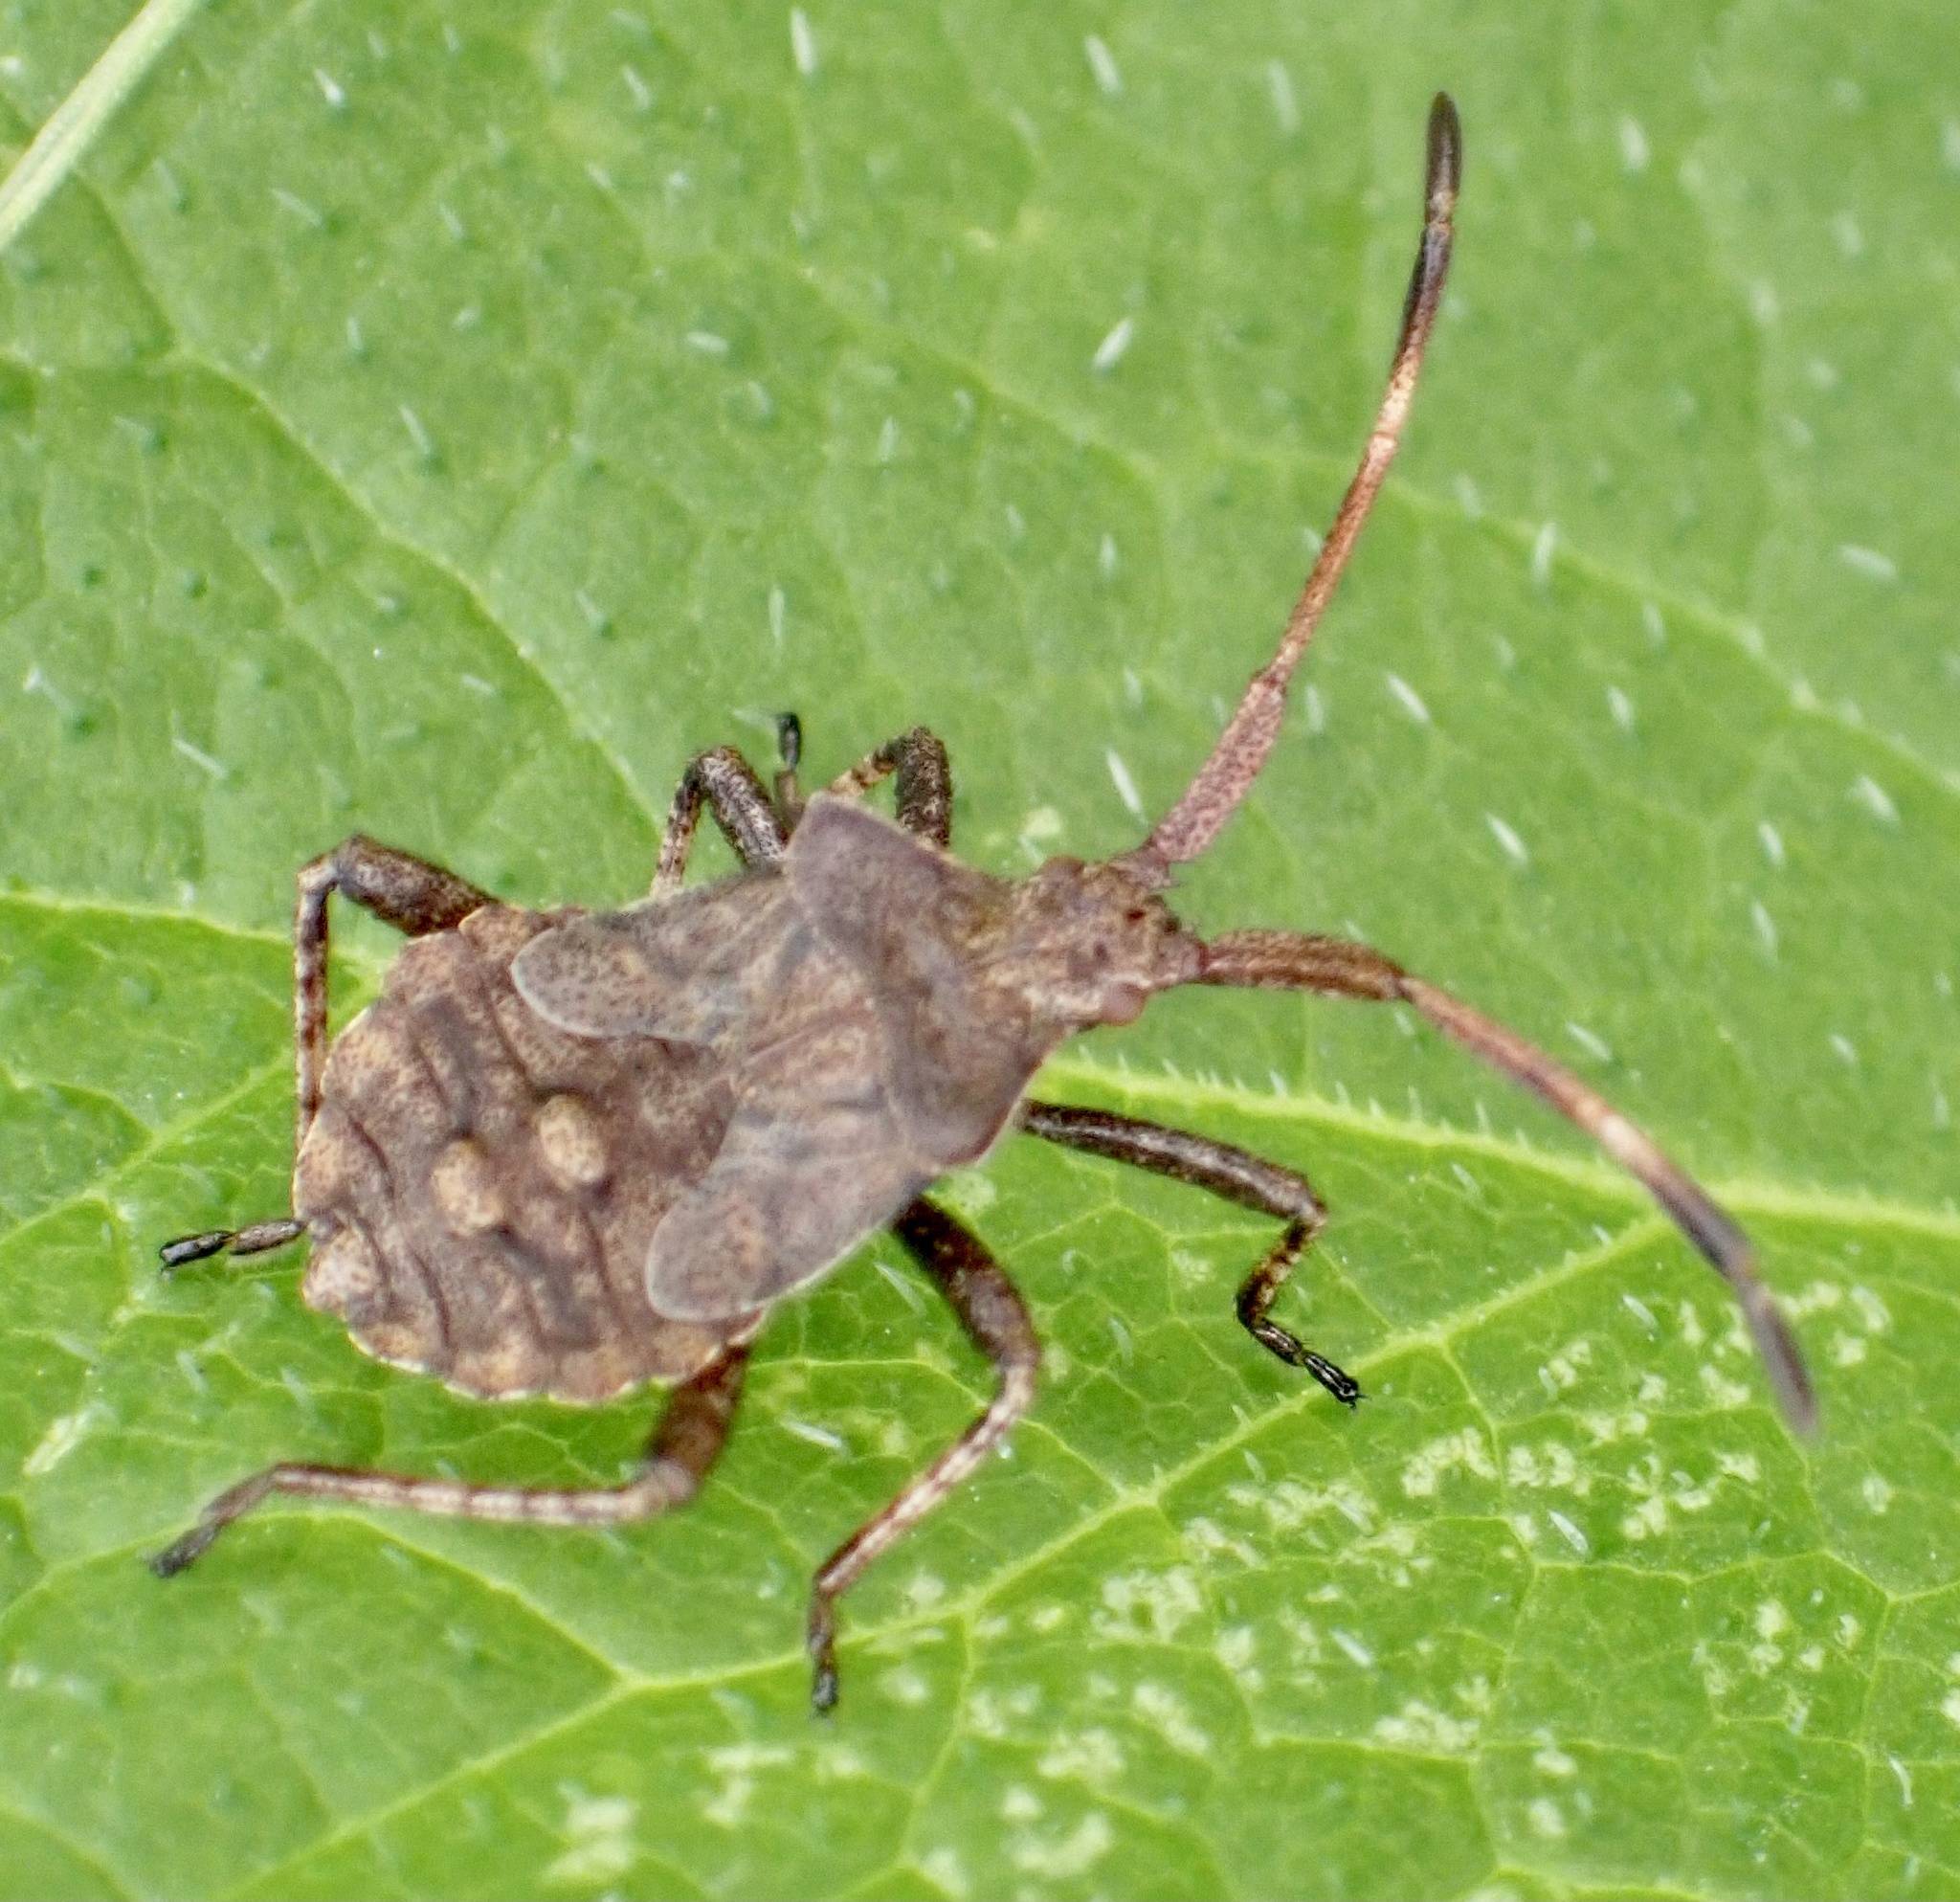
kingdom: Animalia
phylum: Arthropoda
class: Insecta
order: Hemiptera
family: Coreidae
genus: Coreus
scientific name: Coreus marginatus
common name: Dock bug
